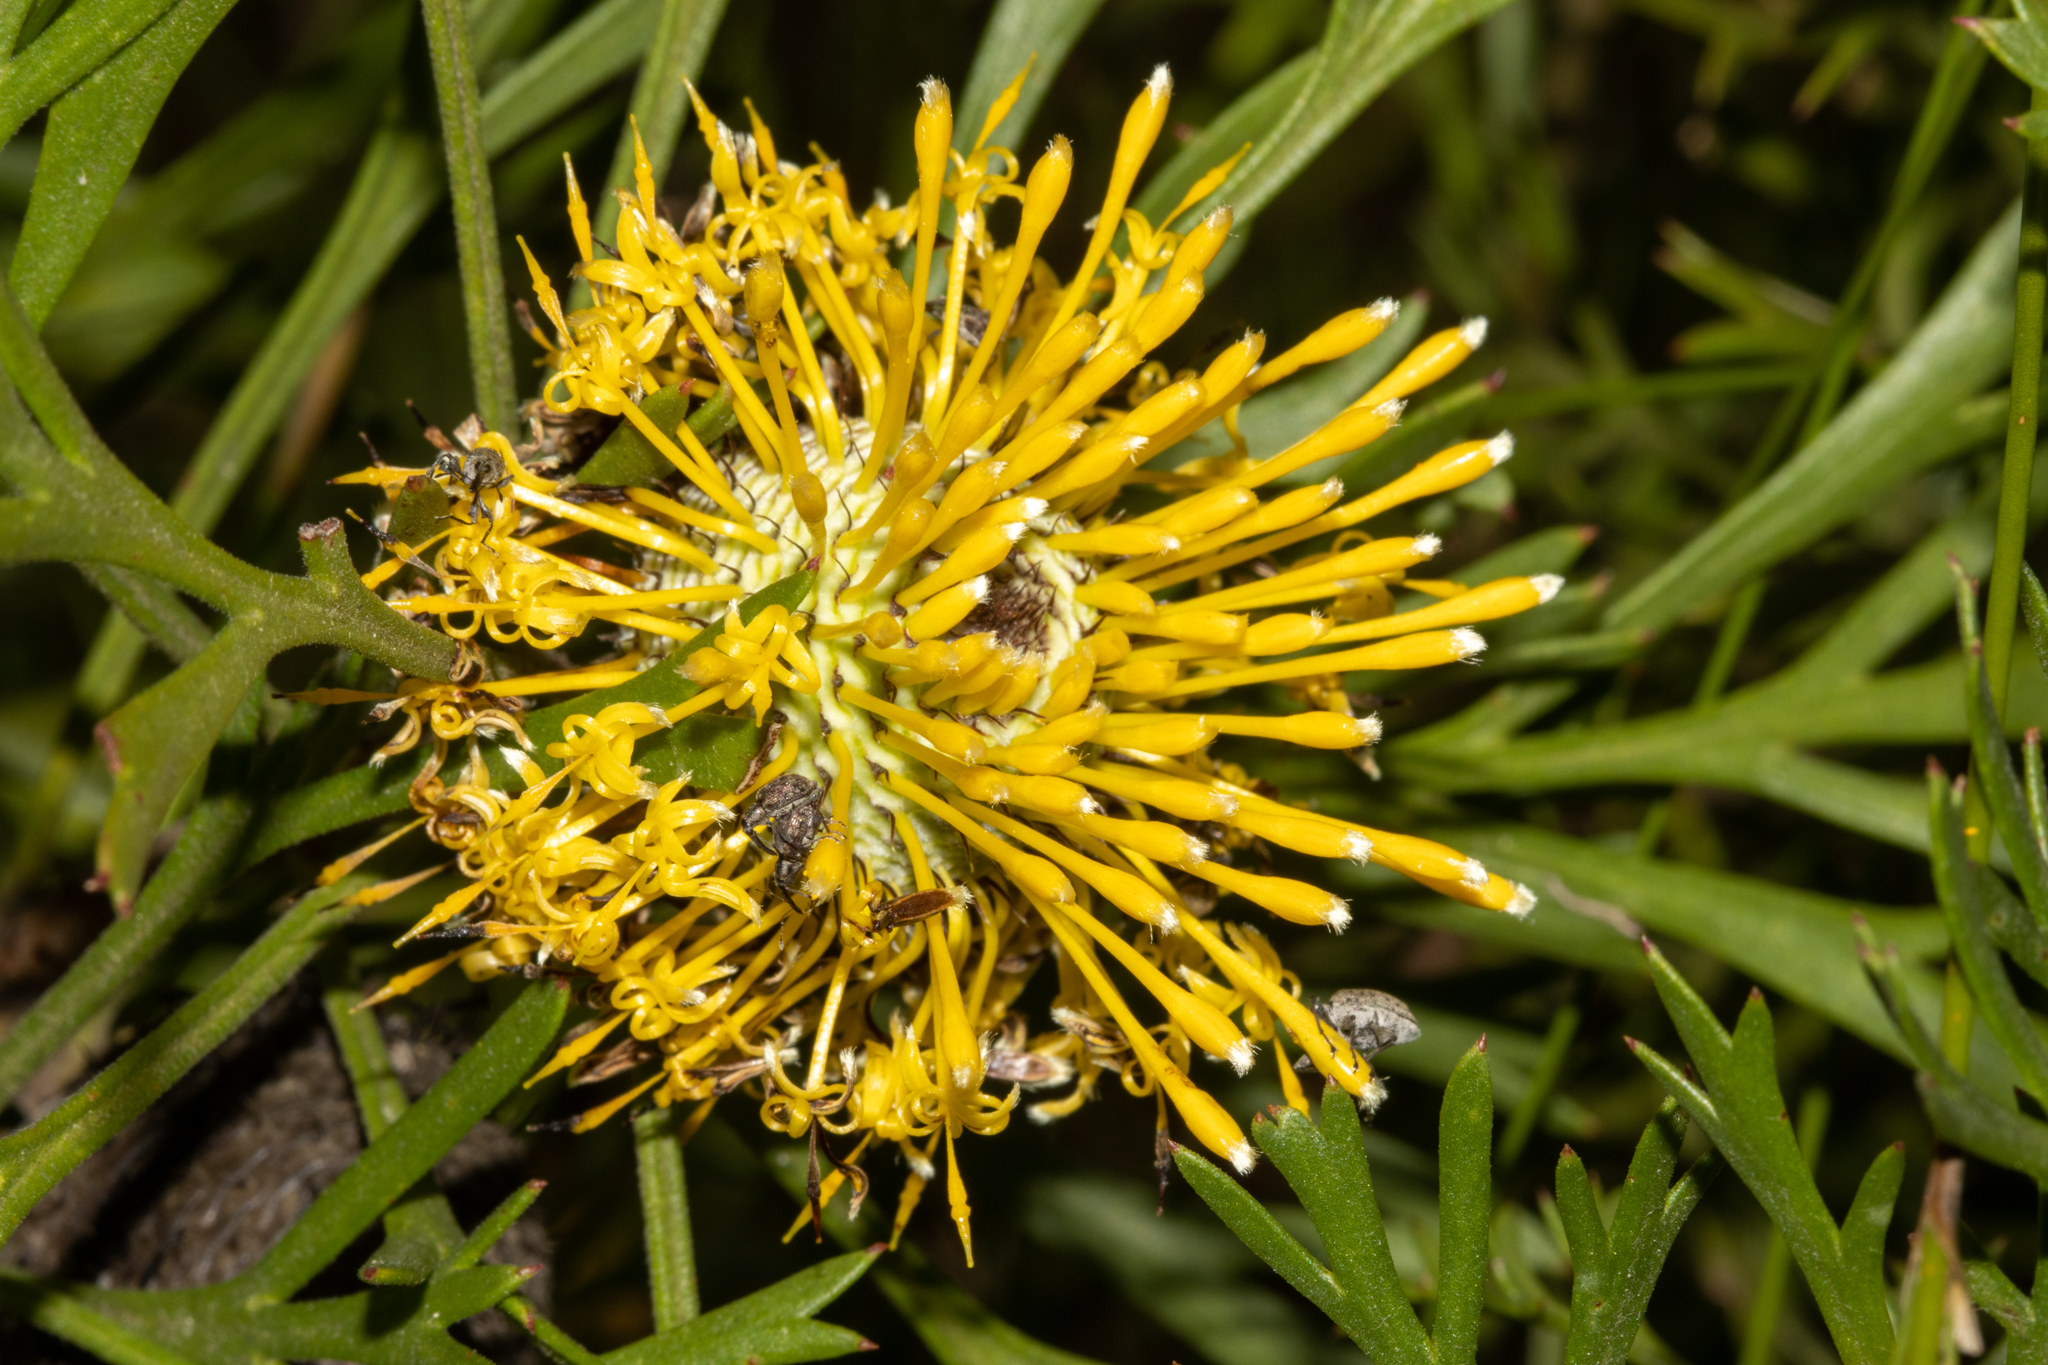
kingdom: Plantae
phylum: Tracheophyta
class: Magnoliopsida
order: Proteales
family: Proteaceae
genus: Isopogon
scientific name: Isopogon anemonifolius
